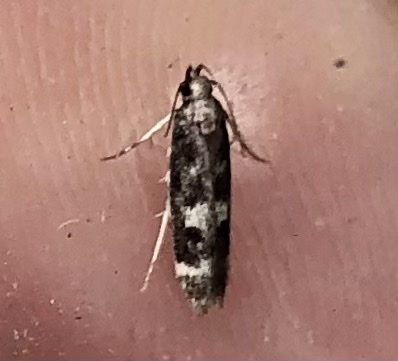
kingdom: Animalia
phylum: Arthropoda
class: Insecta
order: Lepidoptera
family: Gelechiidae
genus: Fascista
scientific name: Fascista bimaculella
